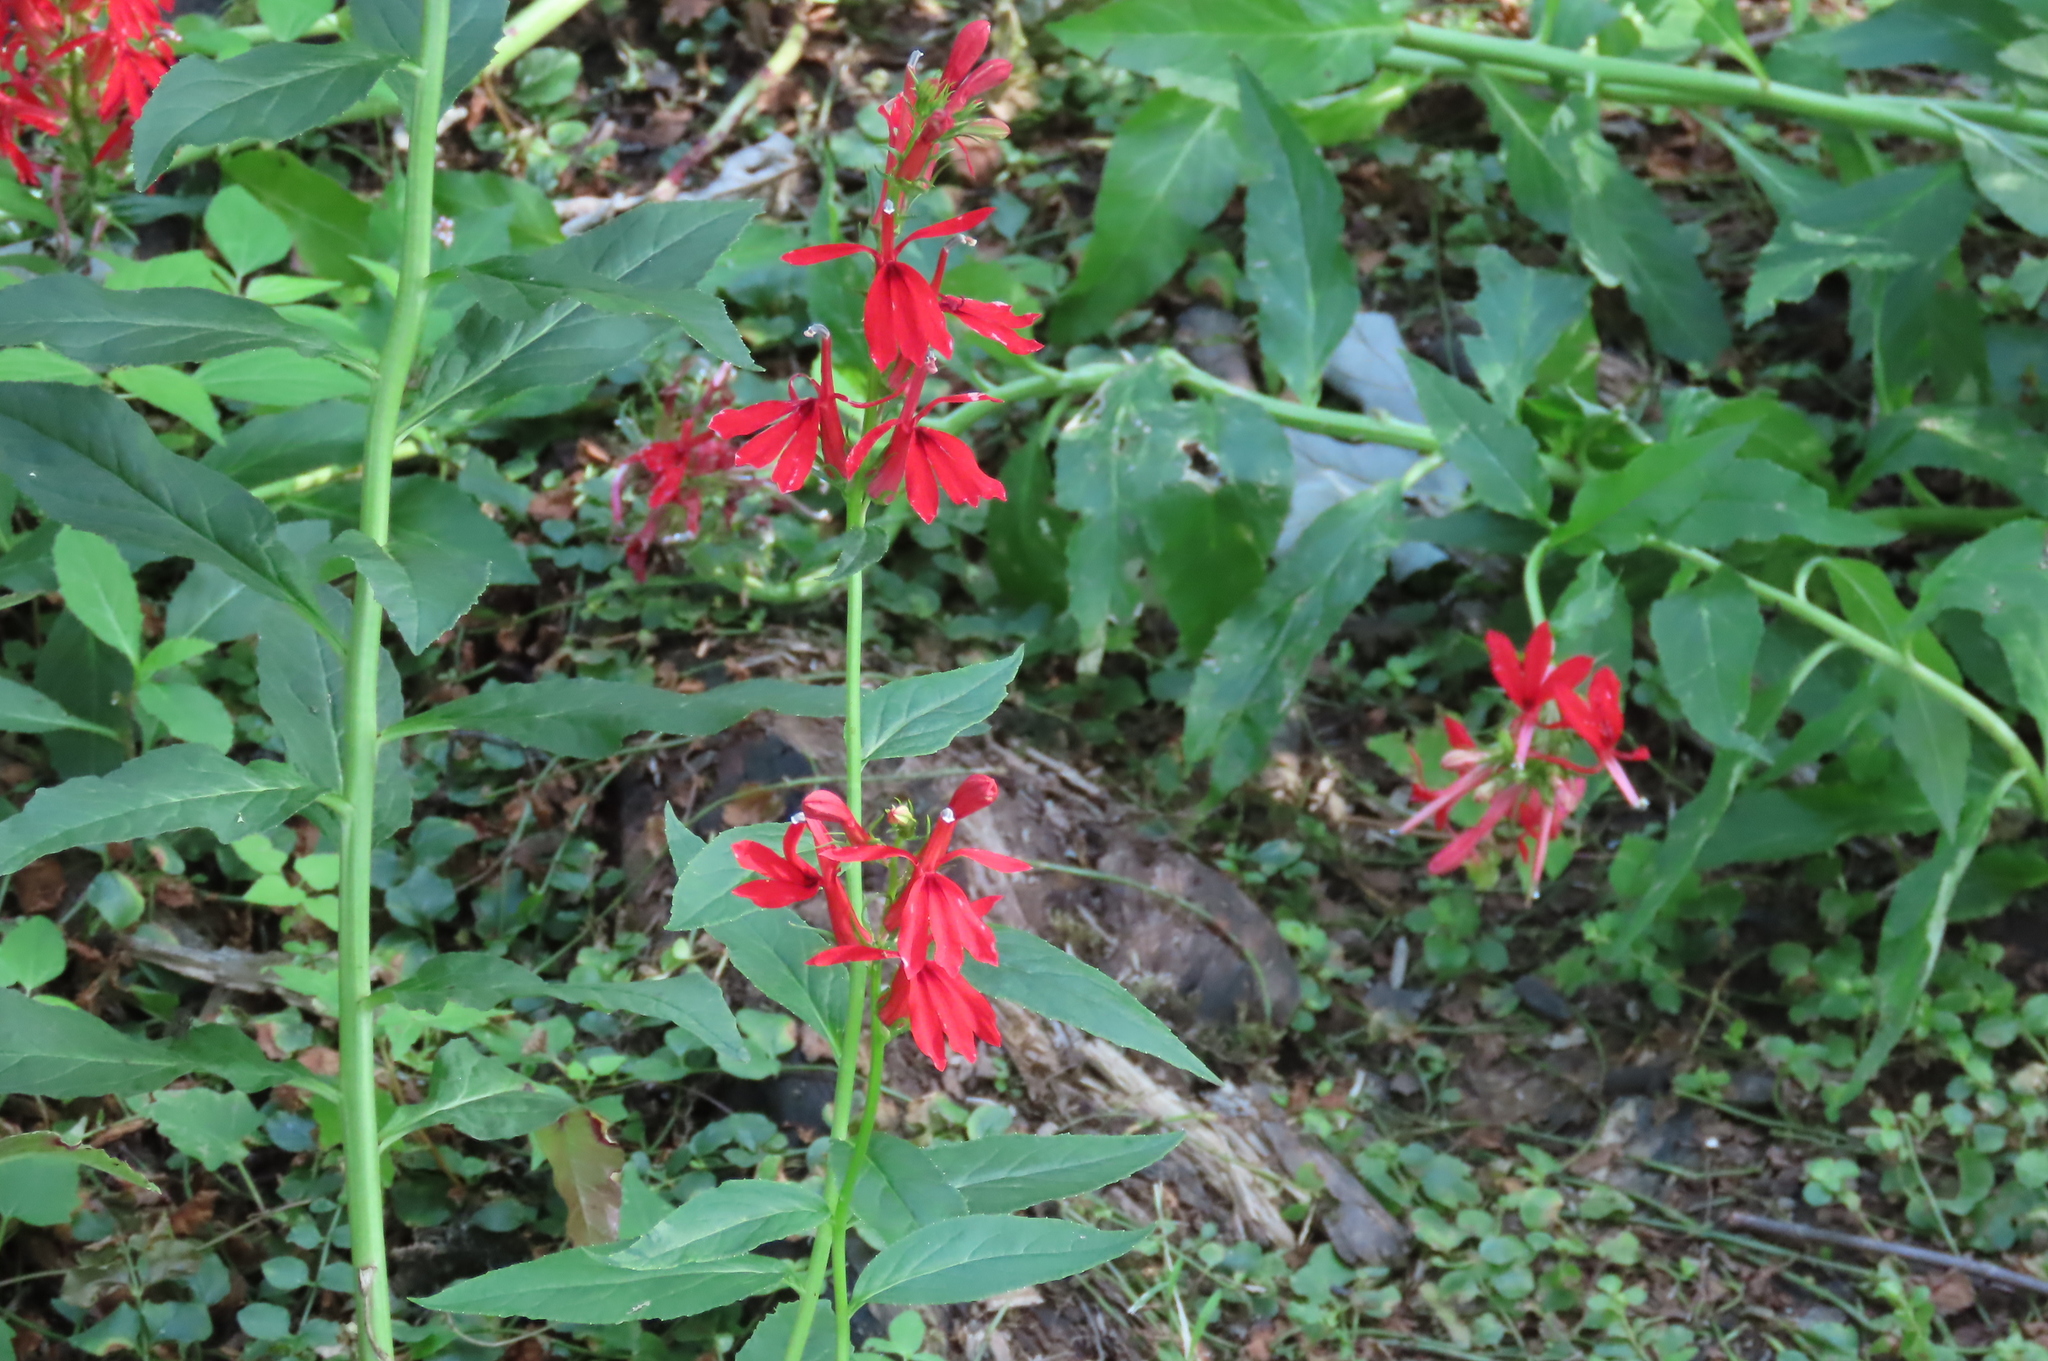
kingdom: Plantae
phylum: Tracheophyta
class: Magnoliopsida
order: Asterales
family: Campanulaceae
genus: Lobelia
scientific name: Lobelia cardinalis
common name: Cardinal flower
